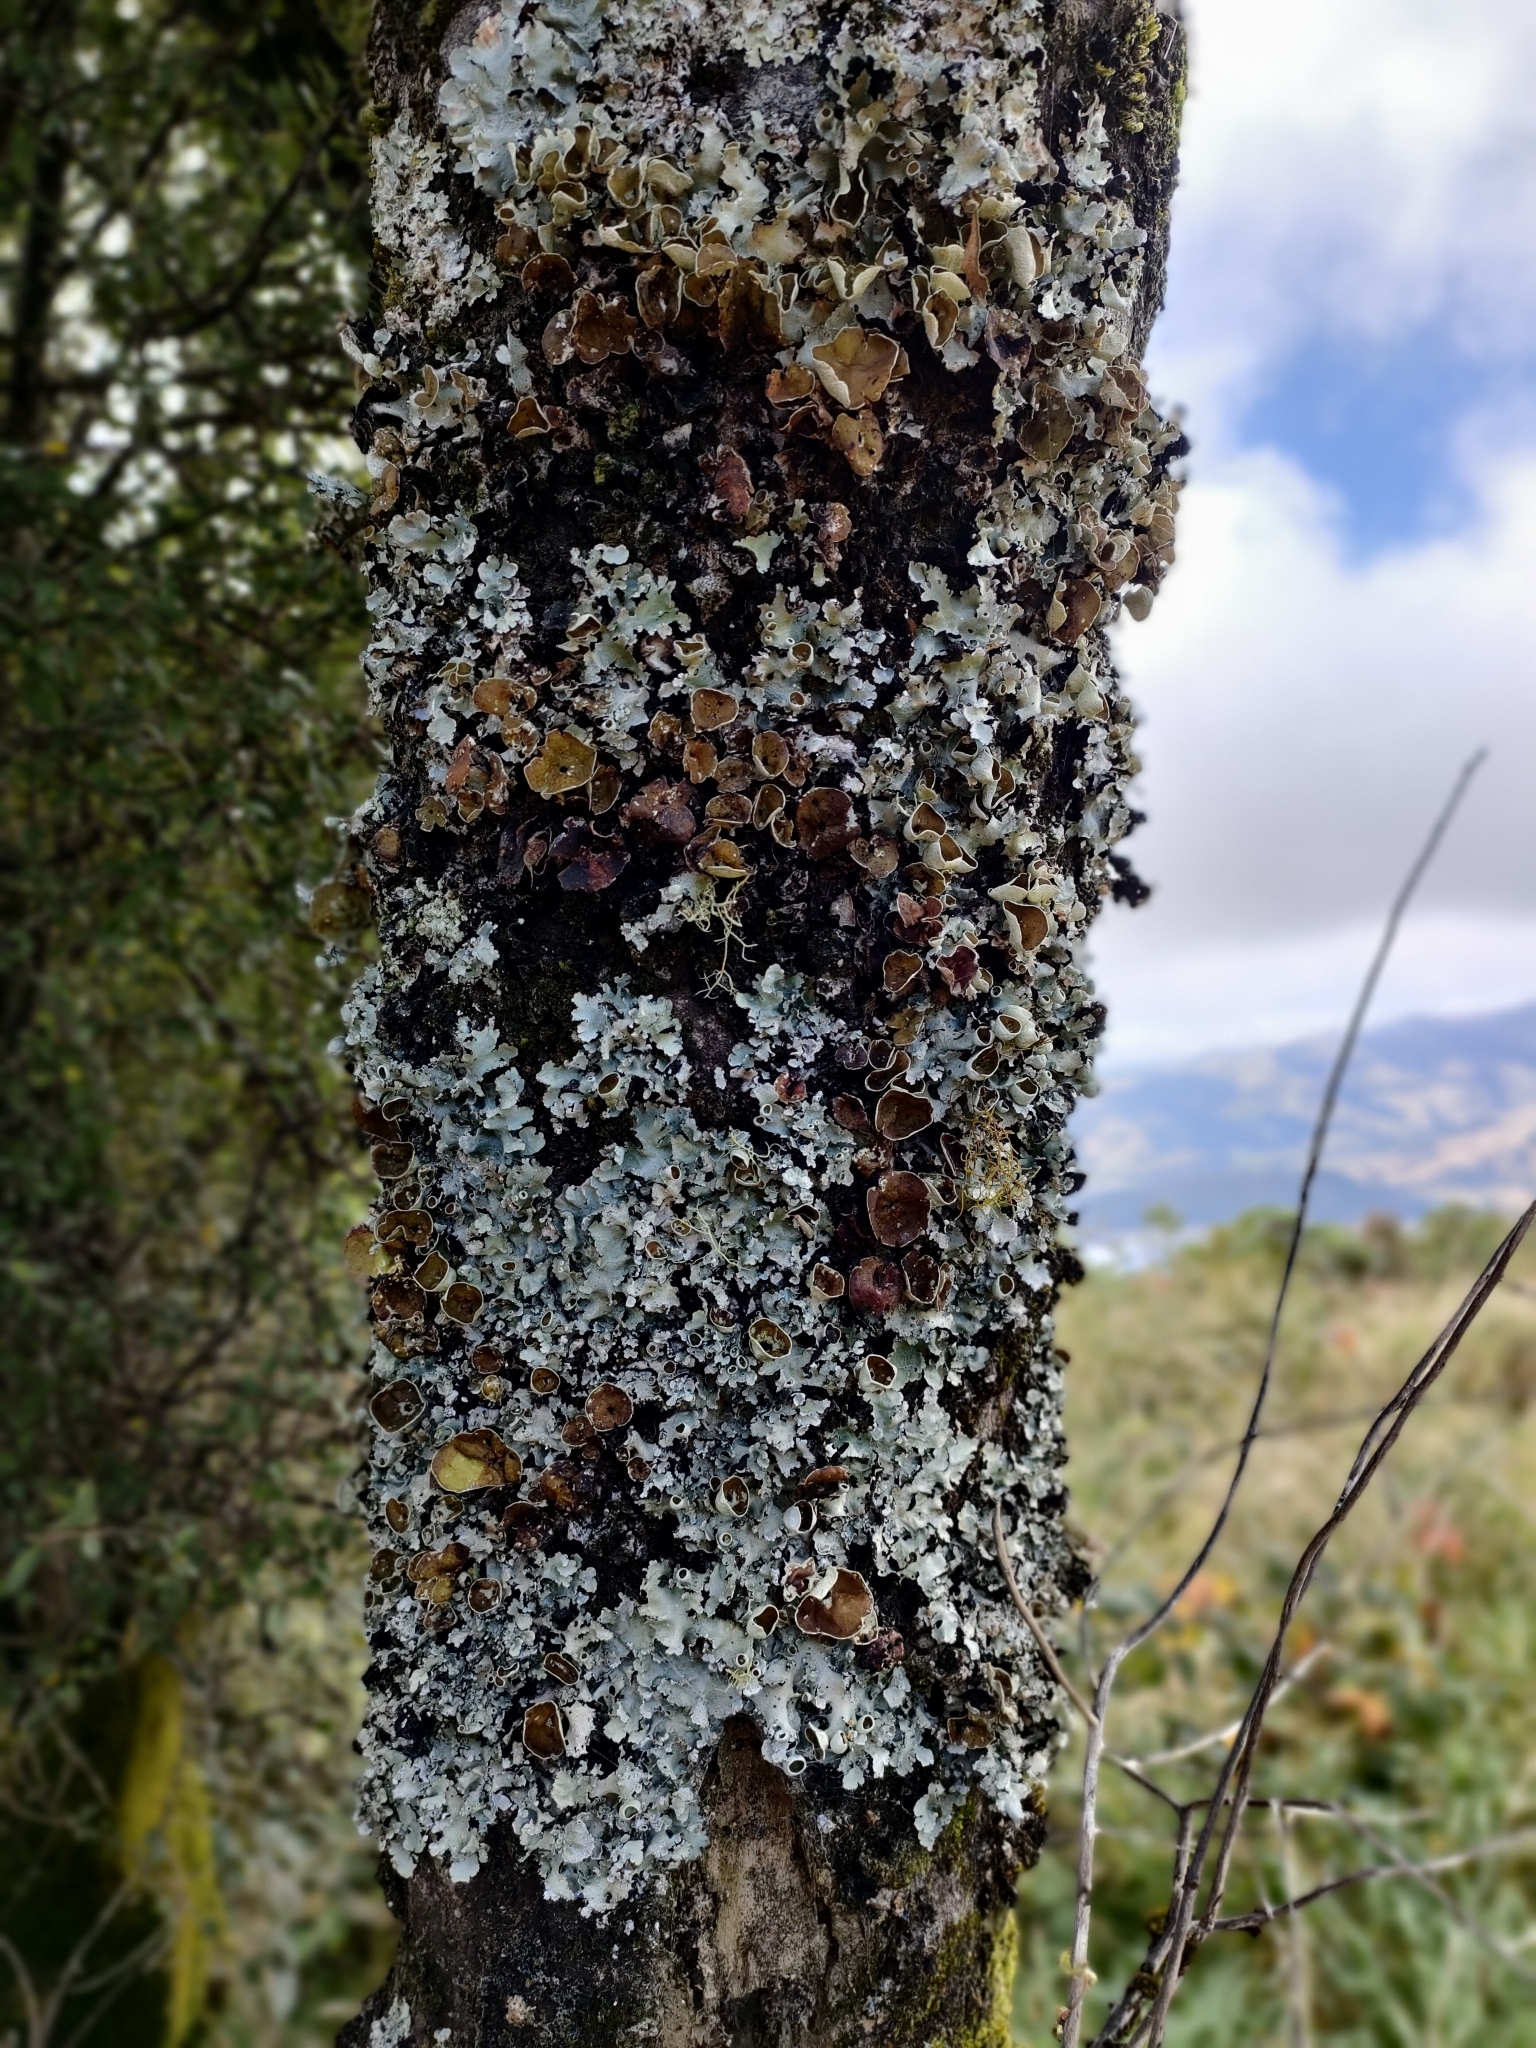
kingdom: Fungi
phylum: Ascomycota
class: Lecanoromycetes
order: Lecanorales
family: Parmeliaceae
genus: Parmotrema
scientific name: Parmotrema reparatum
